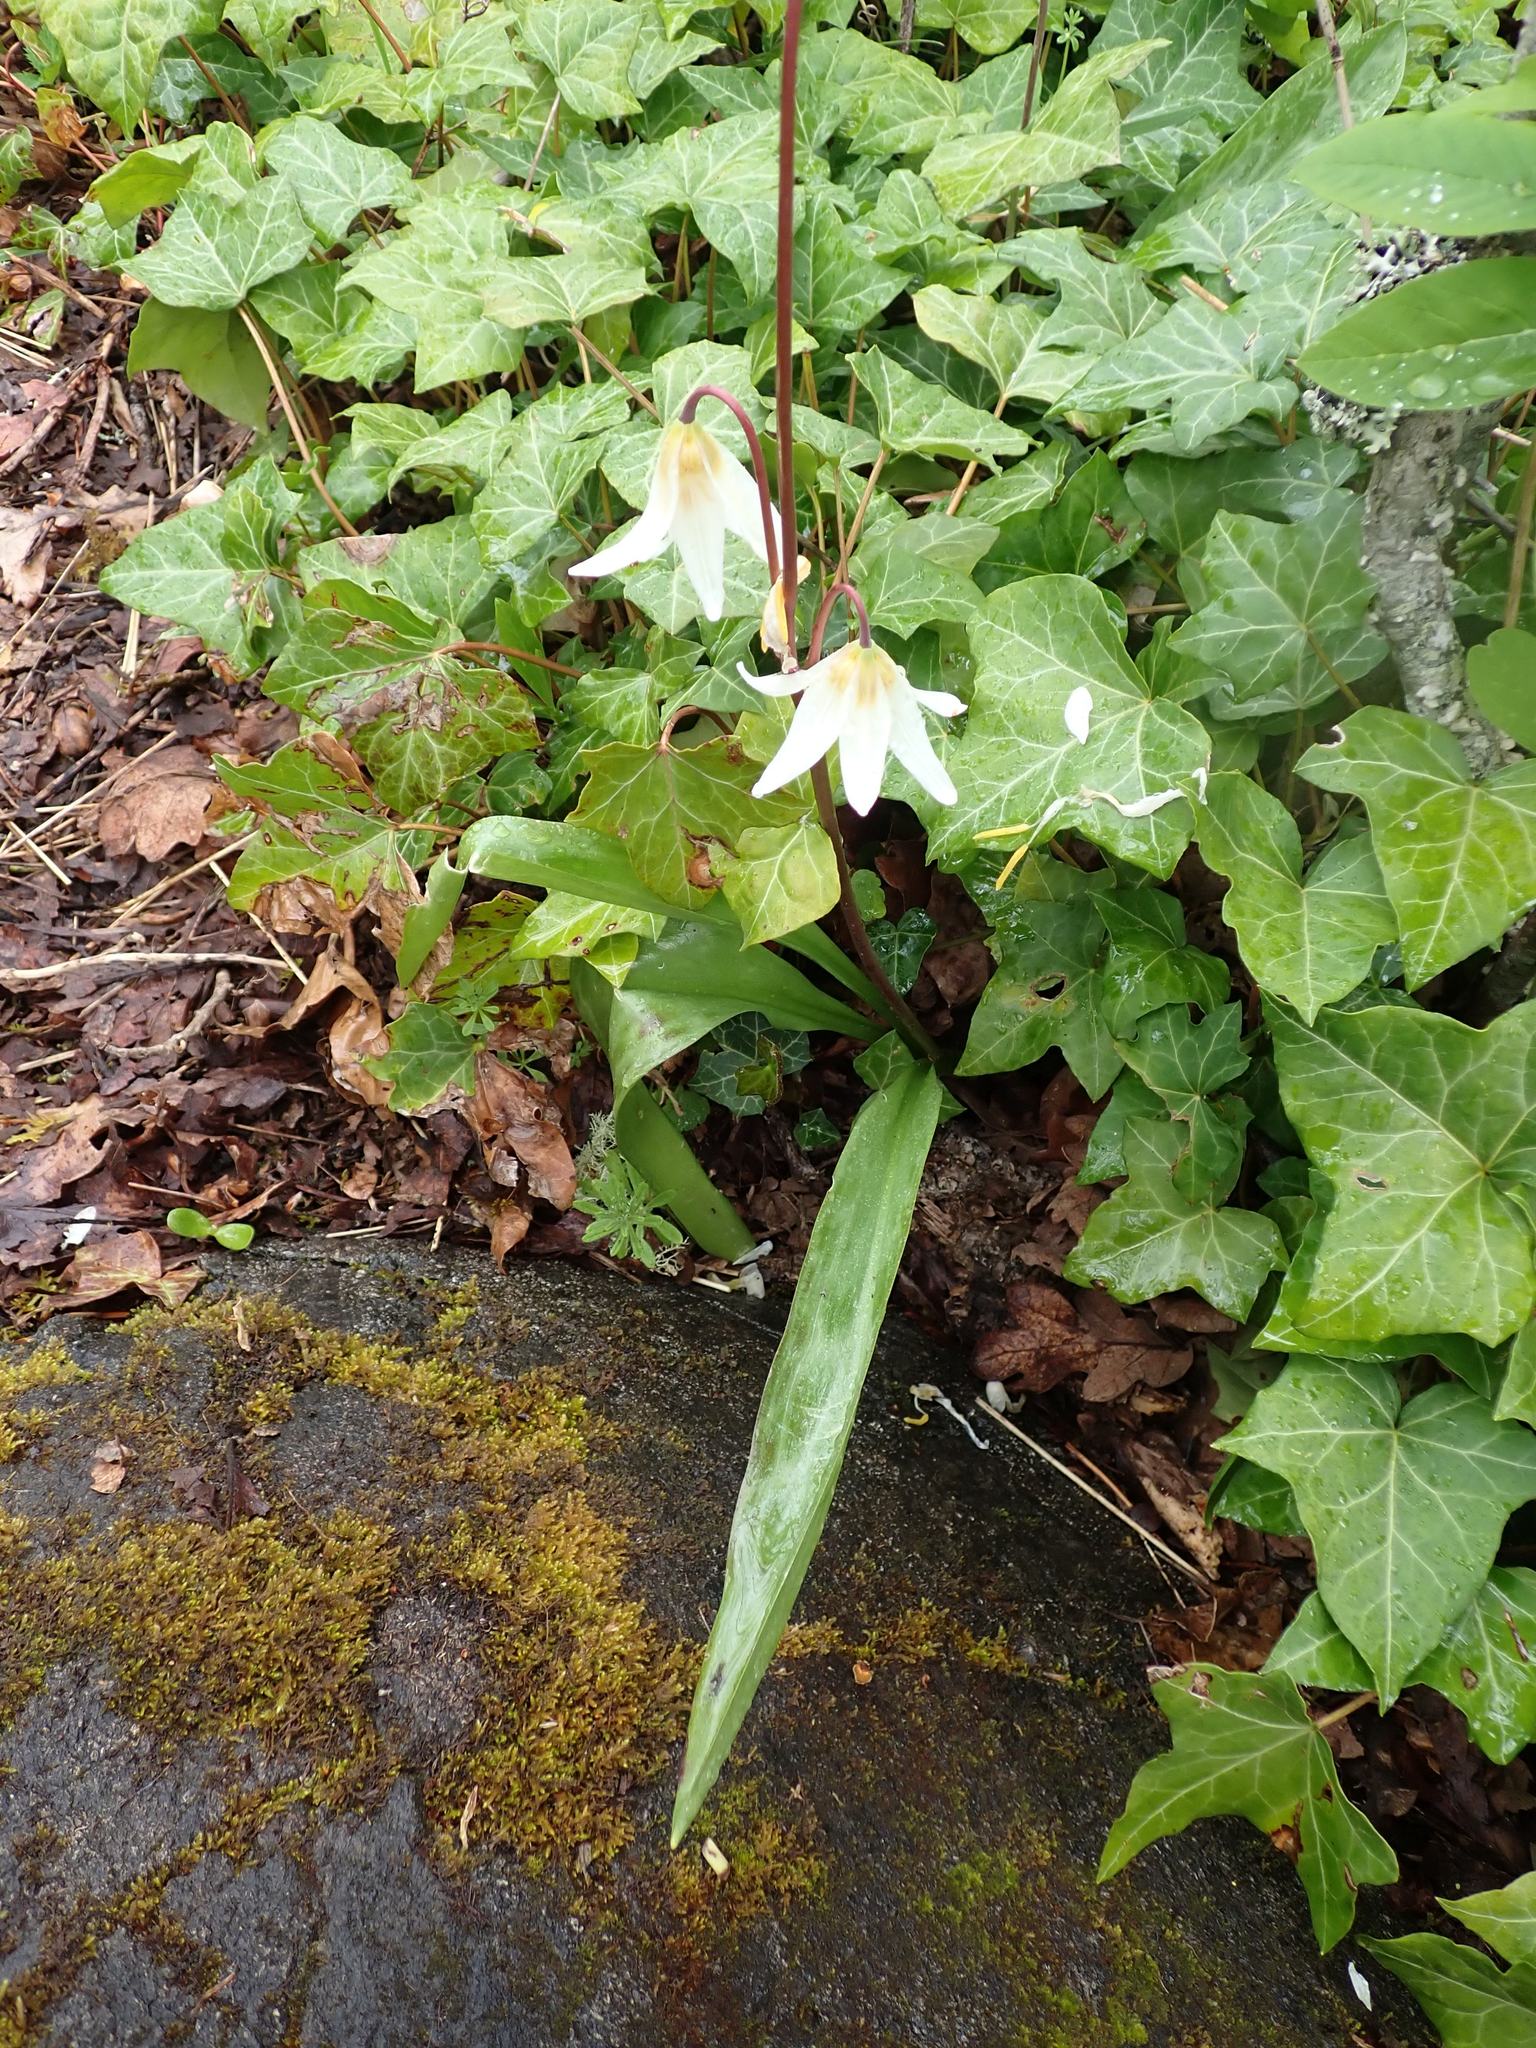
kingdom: Plantae
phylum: Tracheophyta
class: Liliopsida
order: Liliales
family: Liliaceae
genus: Erythronium
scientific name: Erythronium oregonum
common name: Giant adder's-tongue
